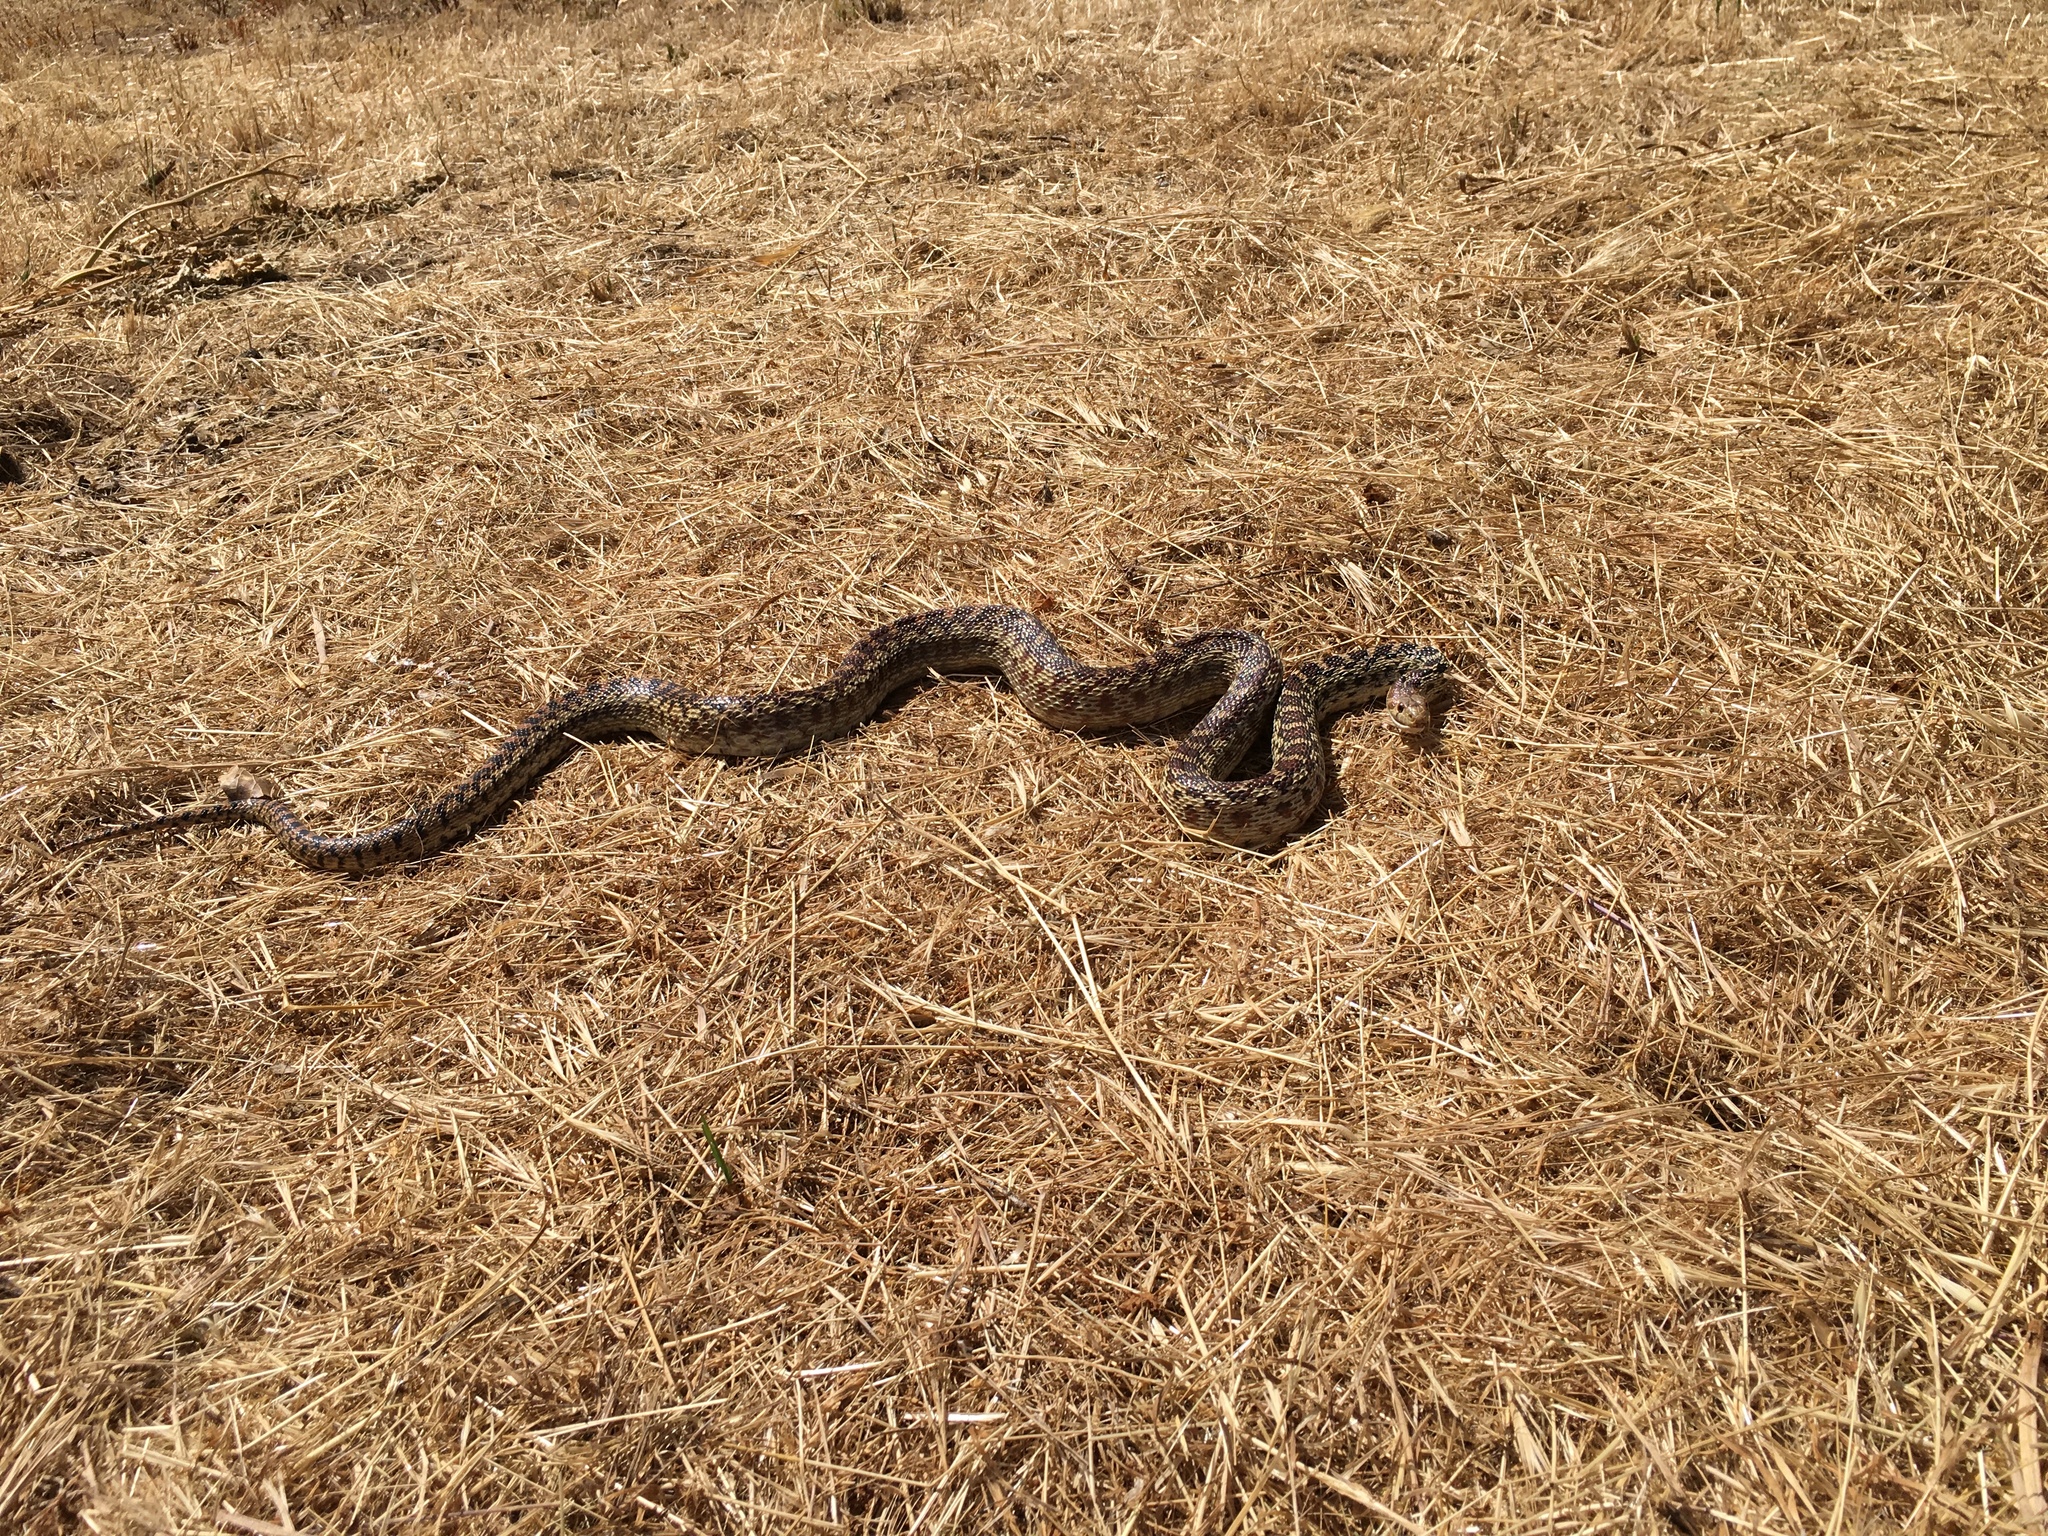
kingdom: Animalia
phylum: Chordata
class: Squamata
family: Colubridae
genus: Pituophis
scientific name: Pituophis catenifer
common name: Gopher snake
